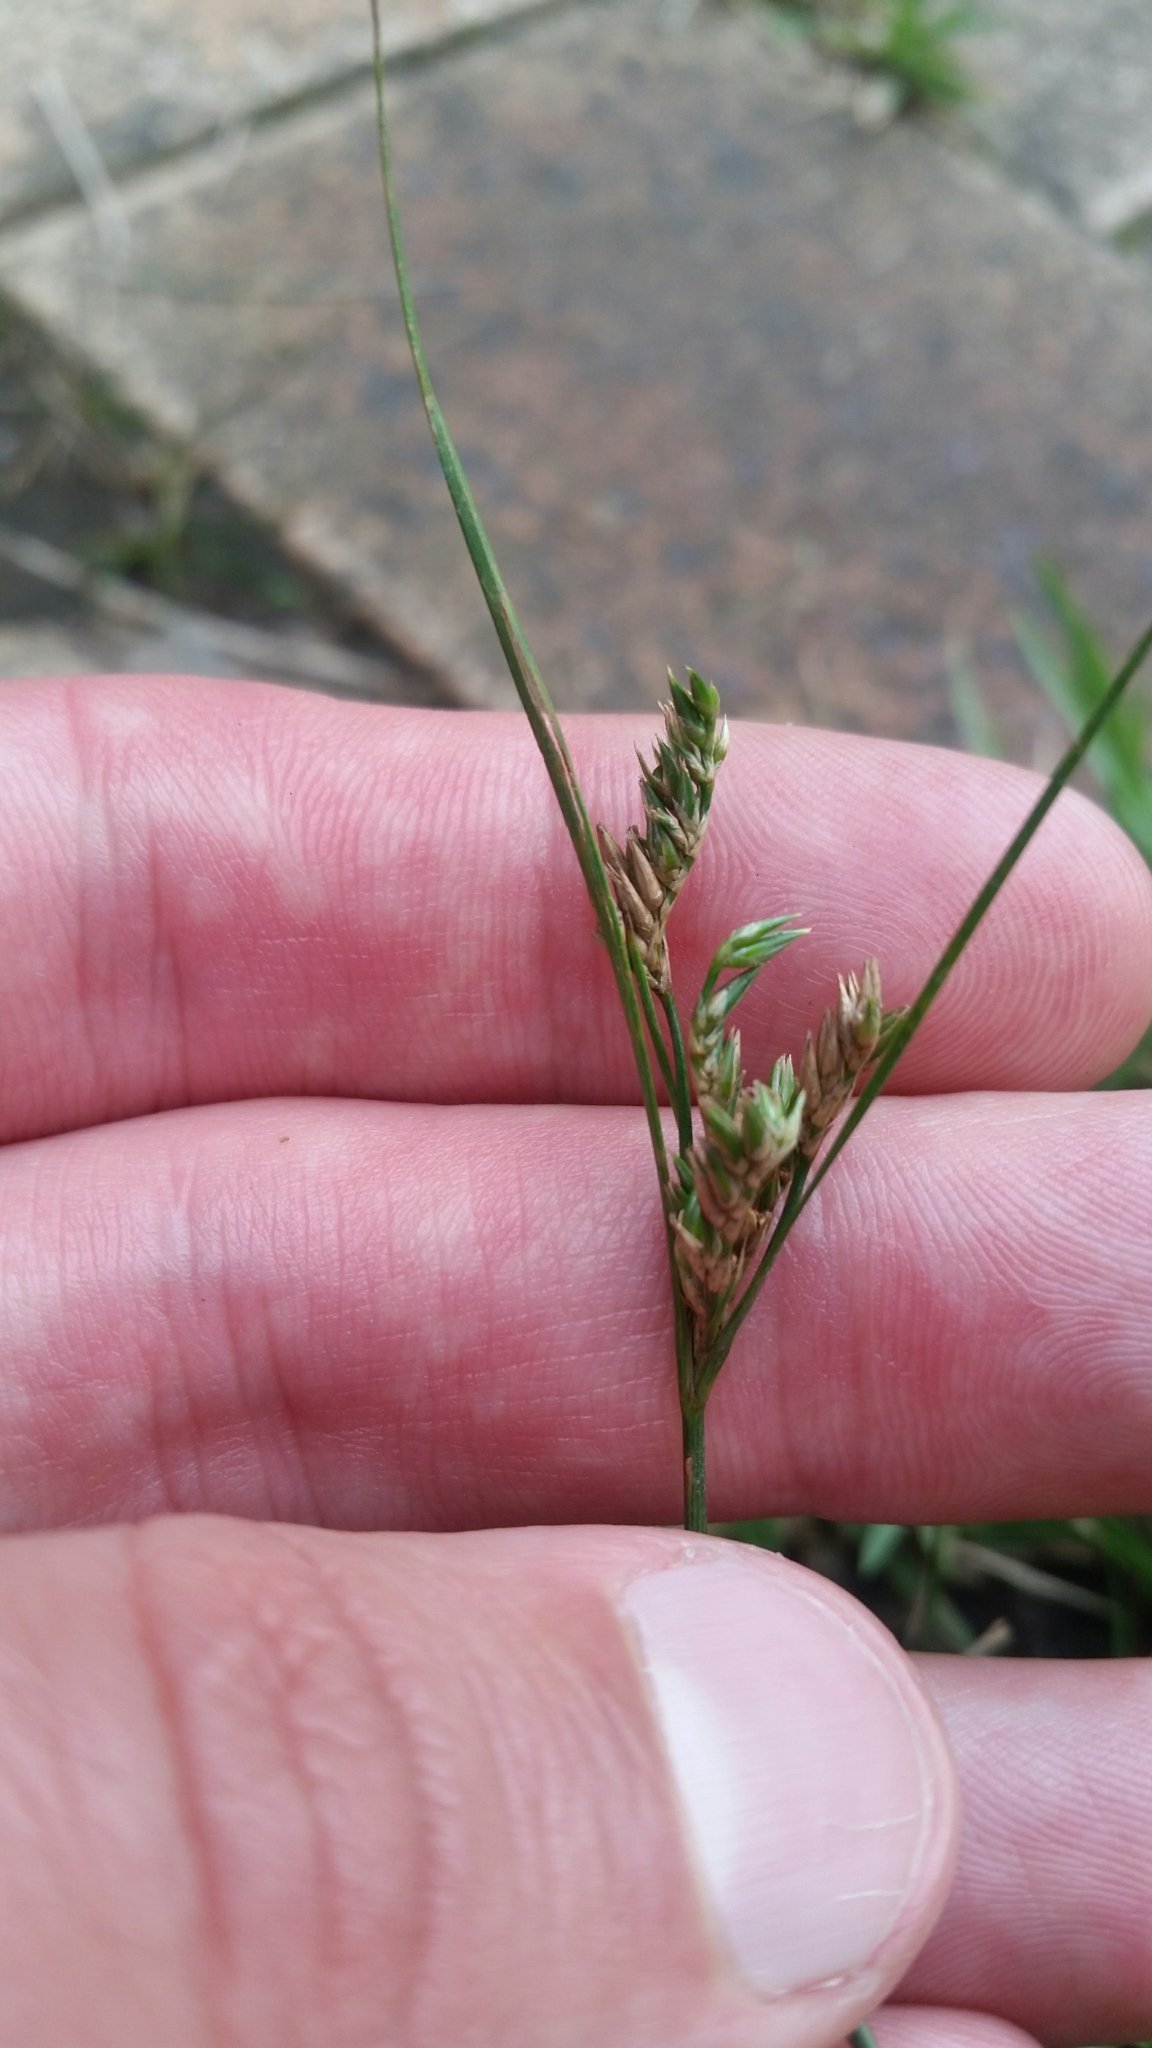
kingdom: Plantae
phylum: Tracheophyta
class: Liliopsida
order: Poales
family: Juncaceae
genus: Juncus
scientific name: Juncus tenuis
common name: Slender rush
